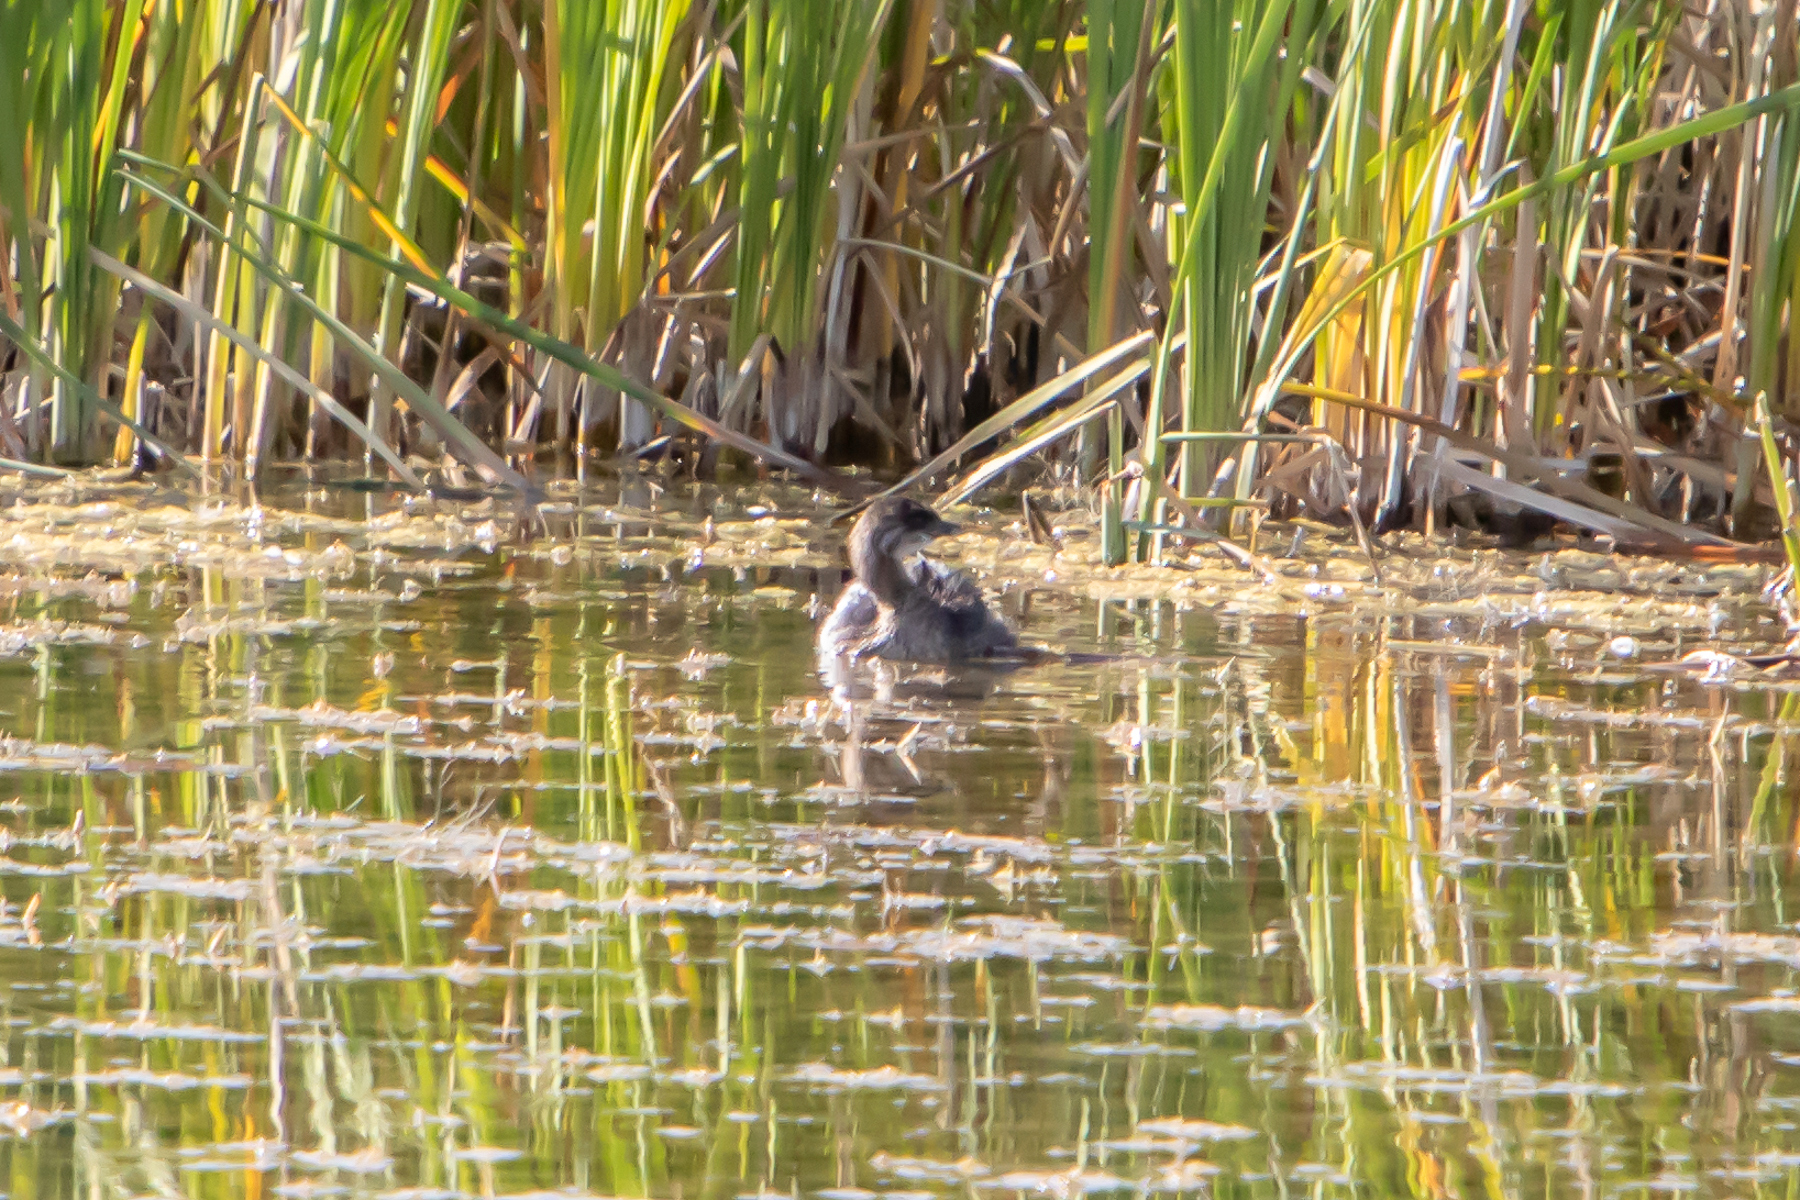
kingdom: Animalia
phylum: Chordata
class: Aves
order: Podicipediformes
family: Podicipedidae
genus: Podilymbus
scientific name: Podilymbus podiceps
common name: Pied-billed grebe
